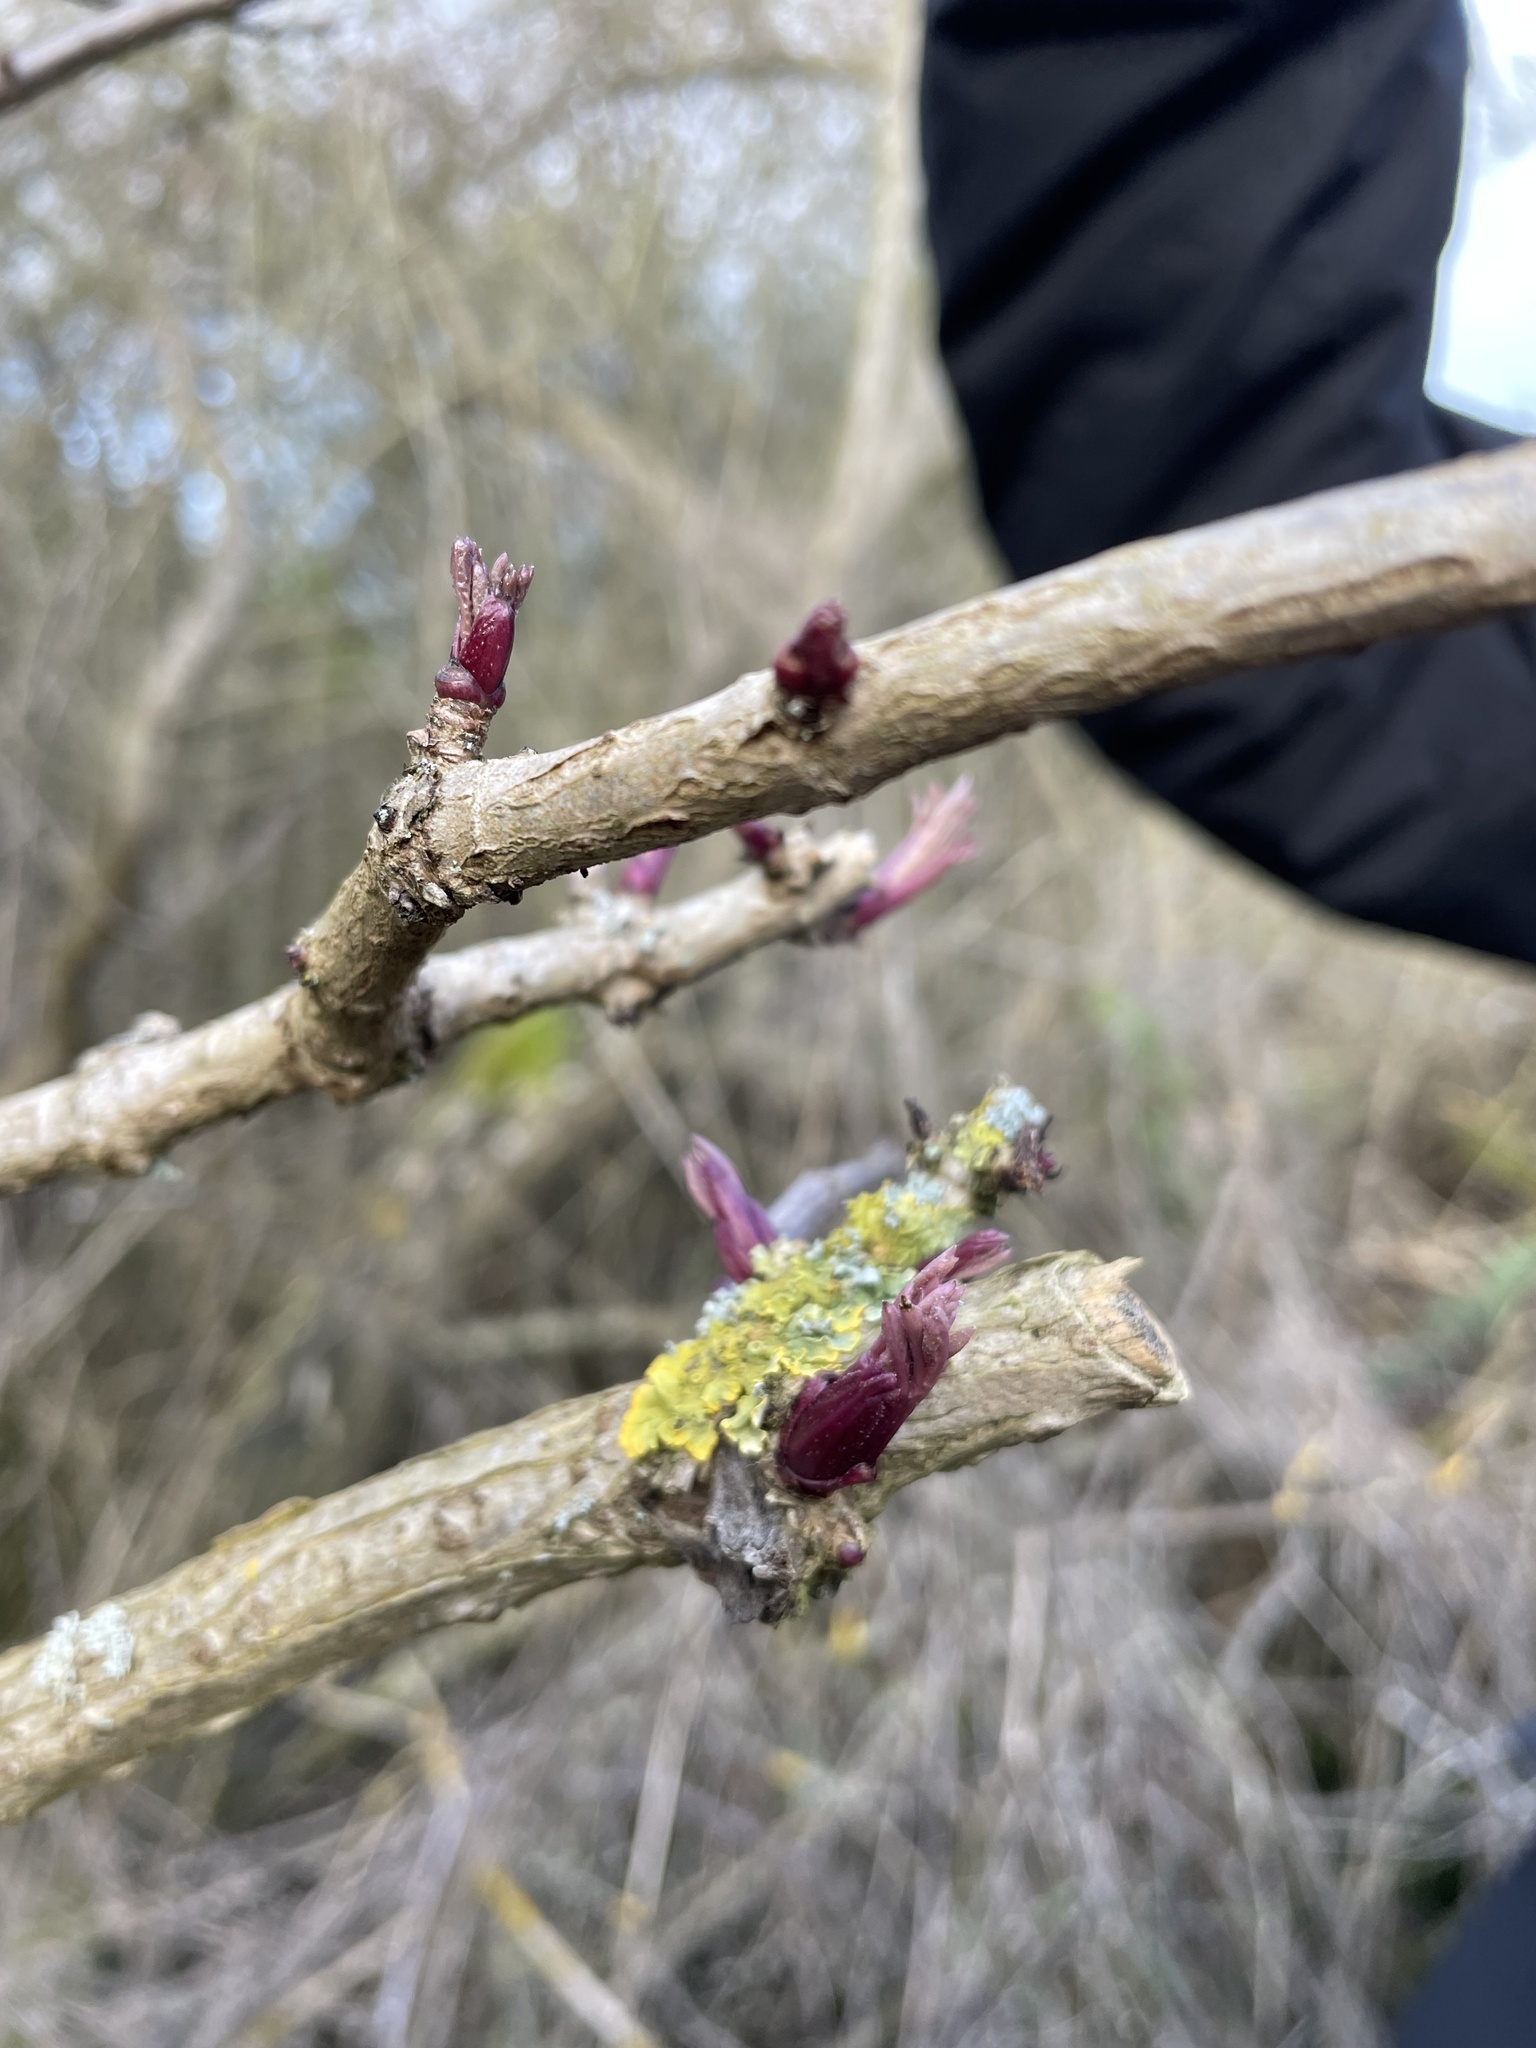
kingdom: Plantae
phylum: Tracheophyta
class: Magnoliopsida
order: Dipsacales
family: Viburnaceae
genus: Sambucus
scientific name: Sambucus nigra
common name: Elder
